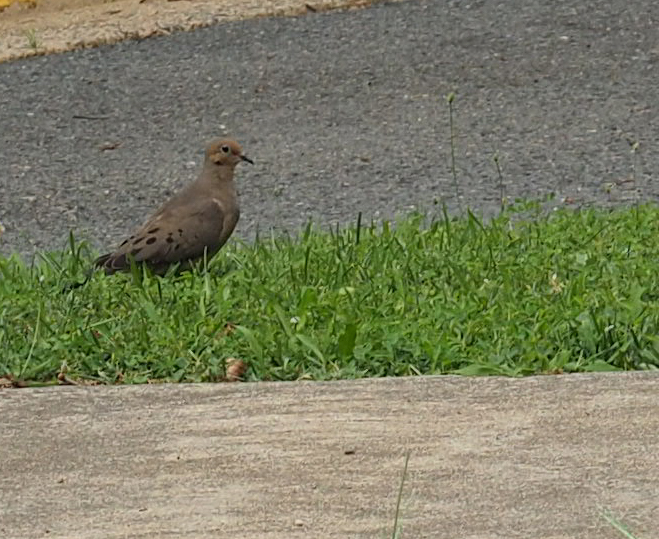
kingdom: Animalia
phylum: Chordata
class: Aves
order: Columbiformes
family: Columbidae
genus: Zenaida
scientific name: Zenaida macroura
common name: Mourning dove
